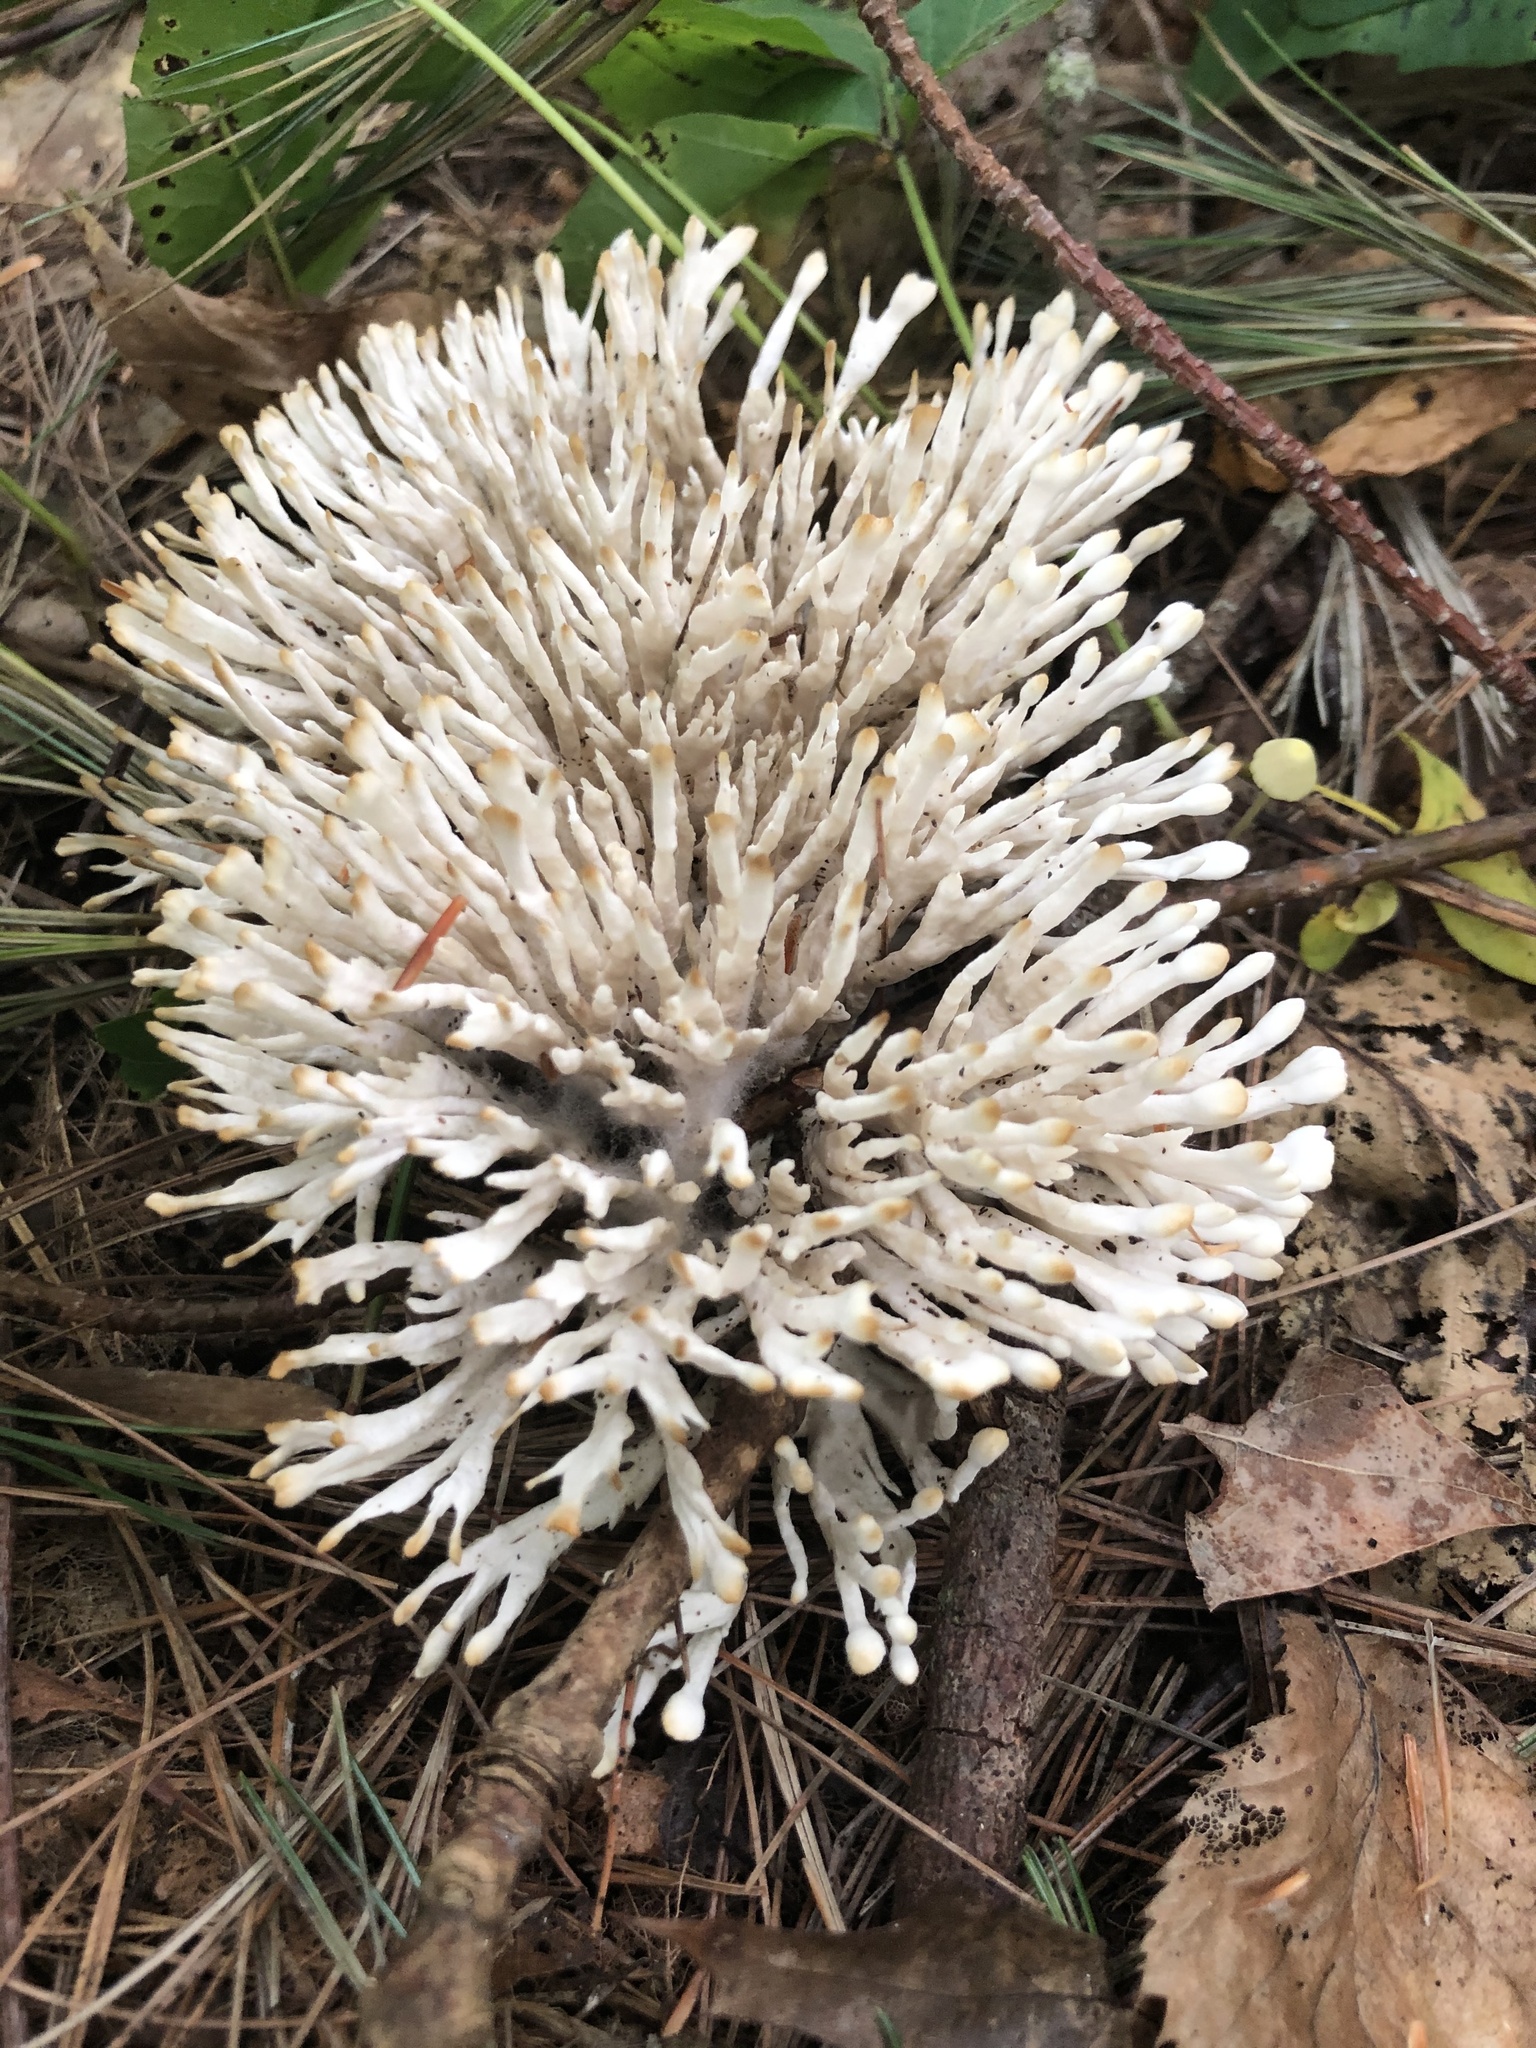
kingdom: Fungi
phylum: Basidiomycota
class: Agaricomycetes
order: Sebacinales
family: Sebacinaceae
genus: Sebacina
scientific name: Sebacina schweinitzii
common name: Jellied false coral fungus
